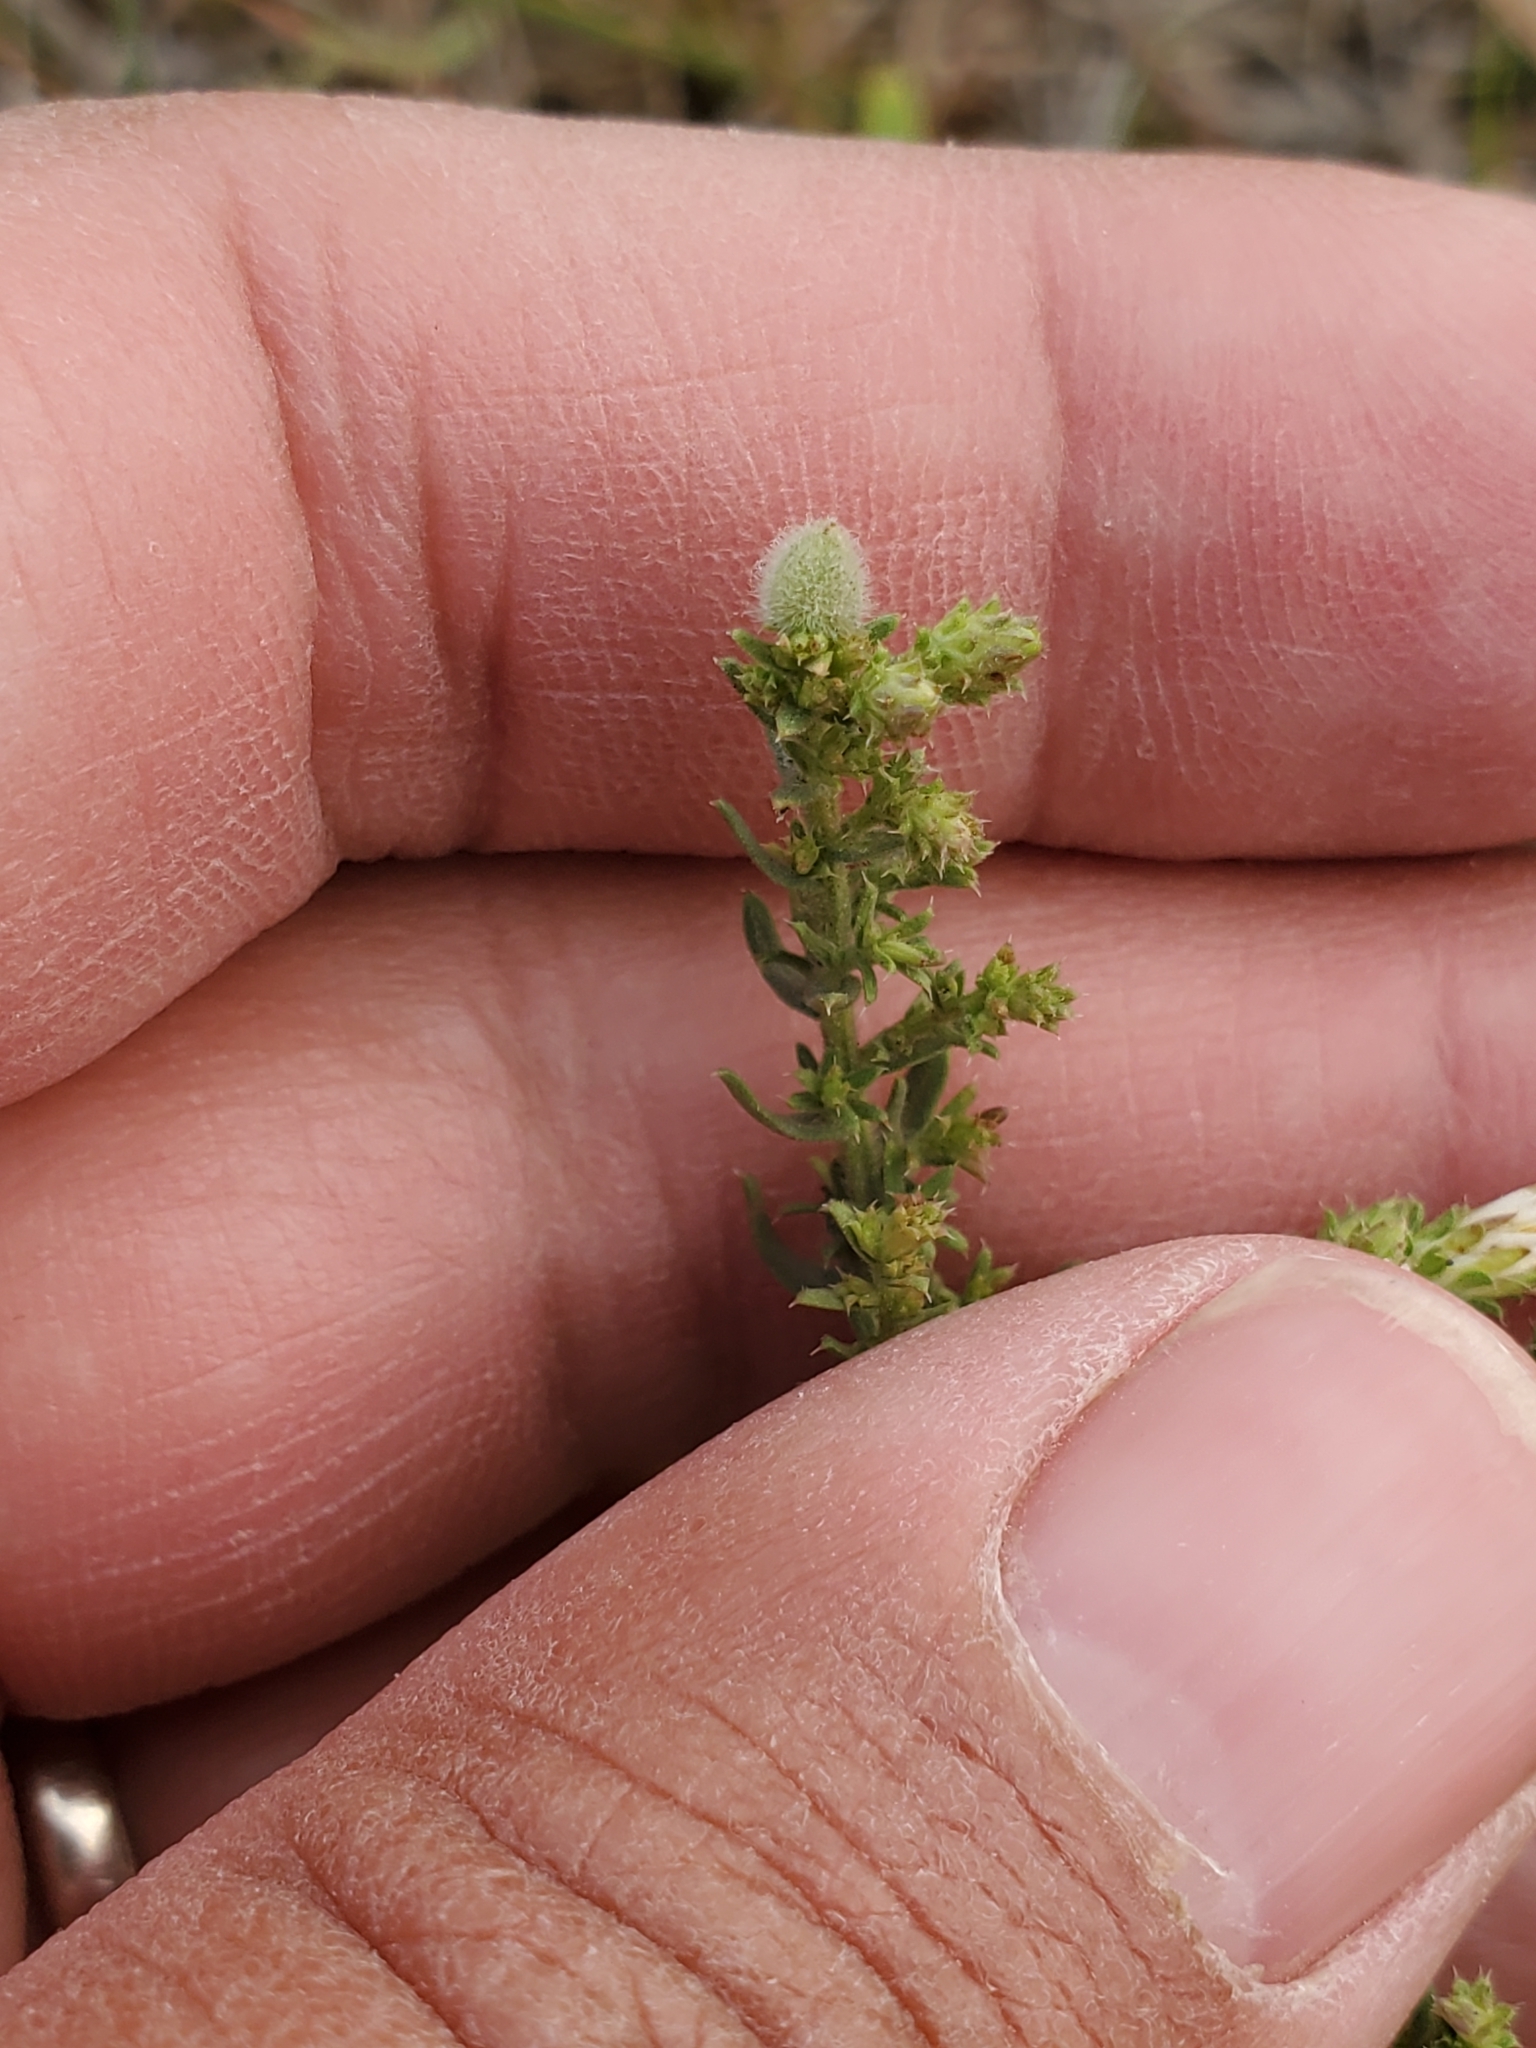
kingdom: Animalia
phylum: Arthropoda
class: Insecta
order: Diptera
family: Cecidomyiidae
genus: Rhopalomyia
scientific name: Rhopalomyia gemmaria
